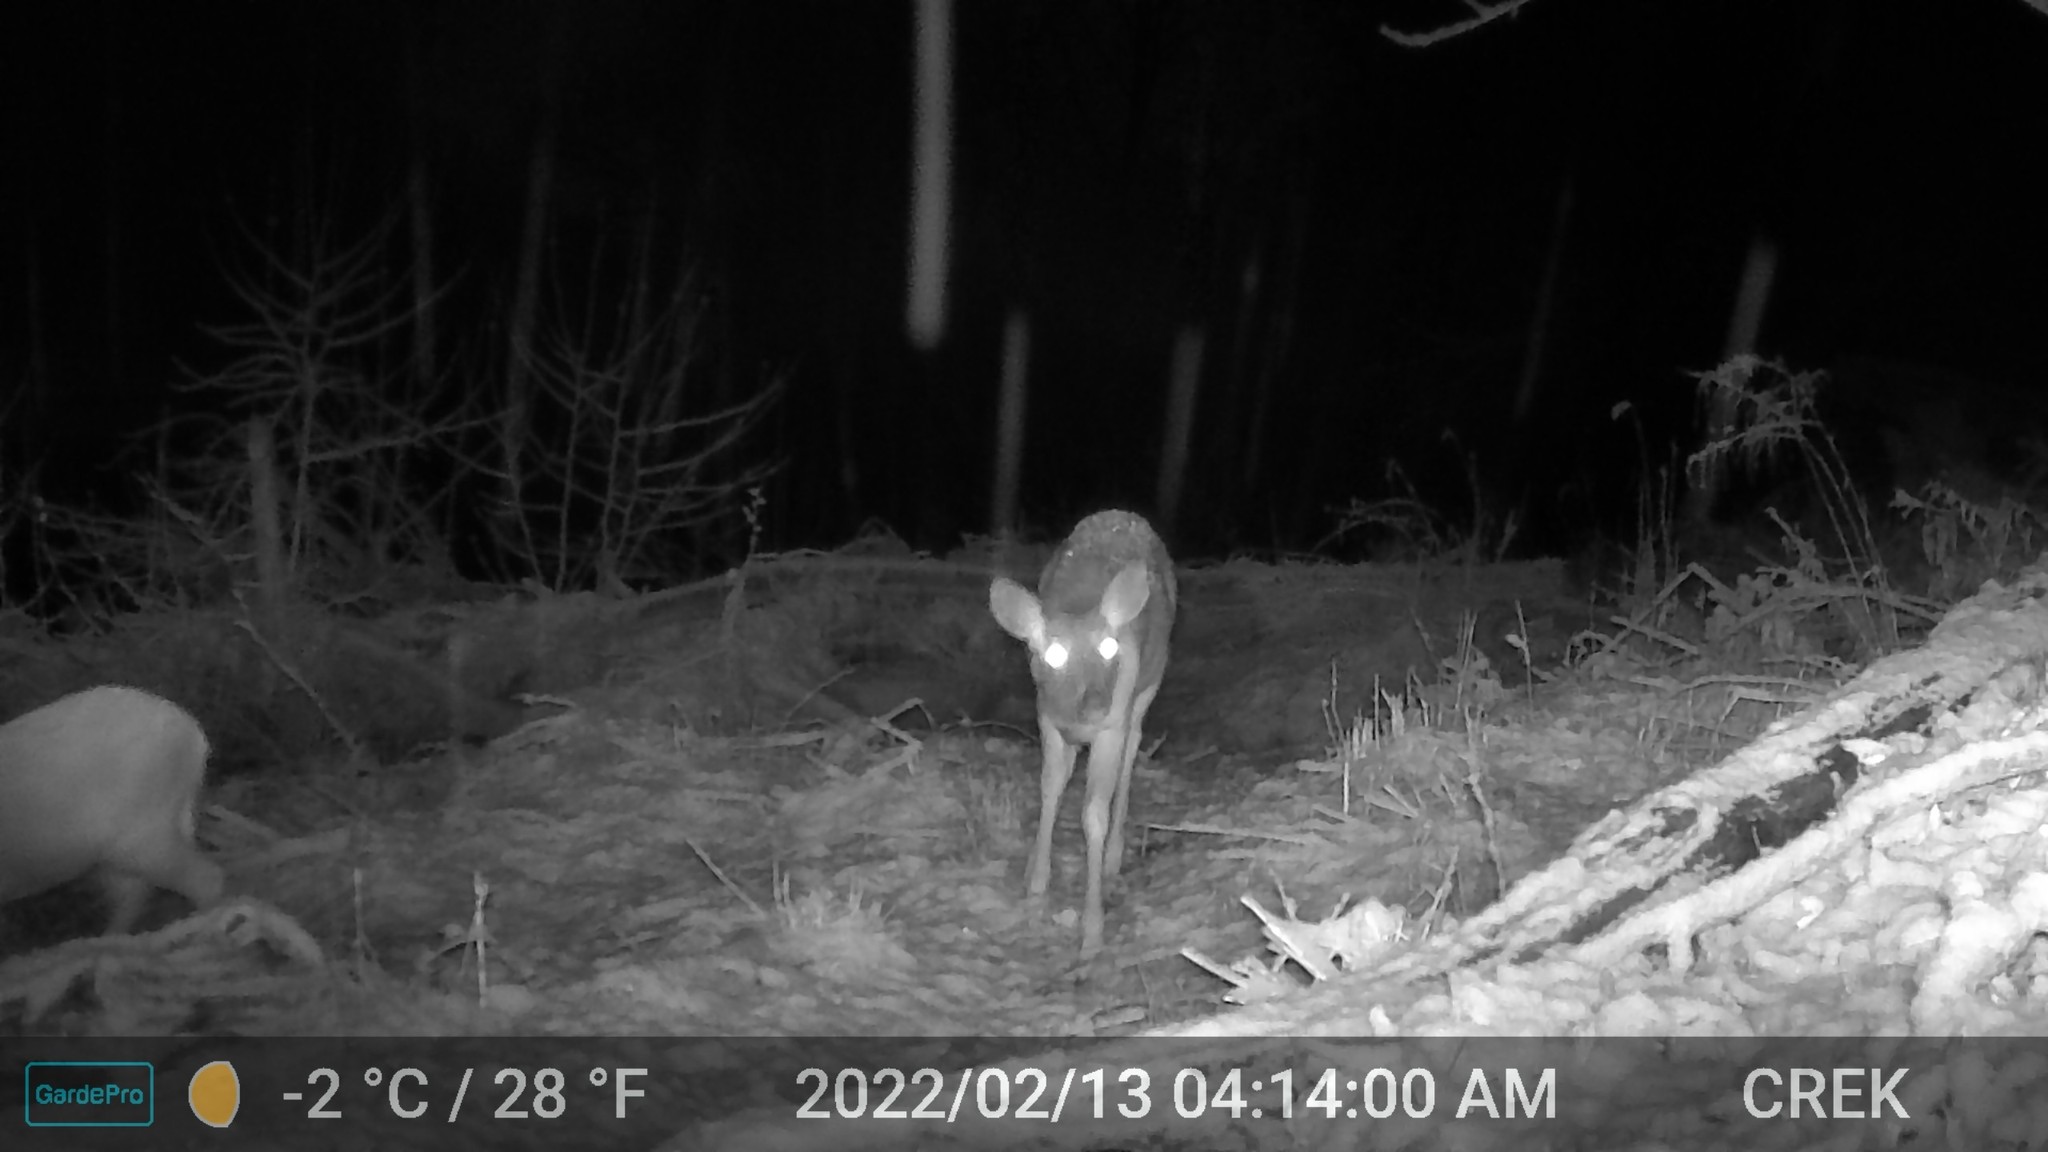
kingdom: Animalia
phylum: Chordata
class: Mammalia
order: Artiodactyla
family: Cervidae
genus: Odocoileus
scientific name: Odocoileus virginianus
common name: White-tailed deer
